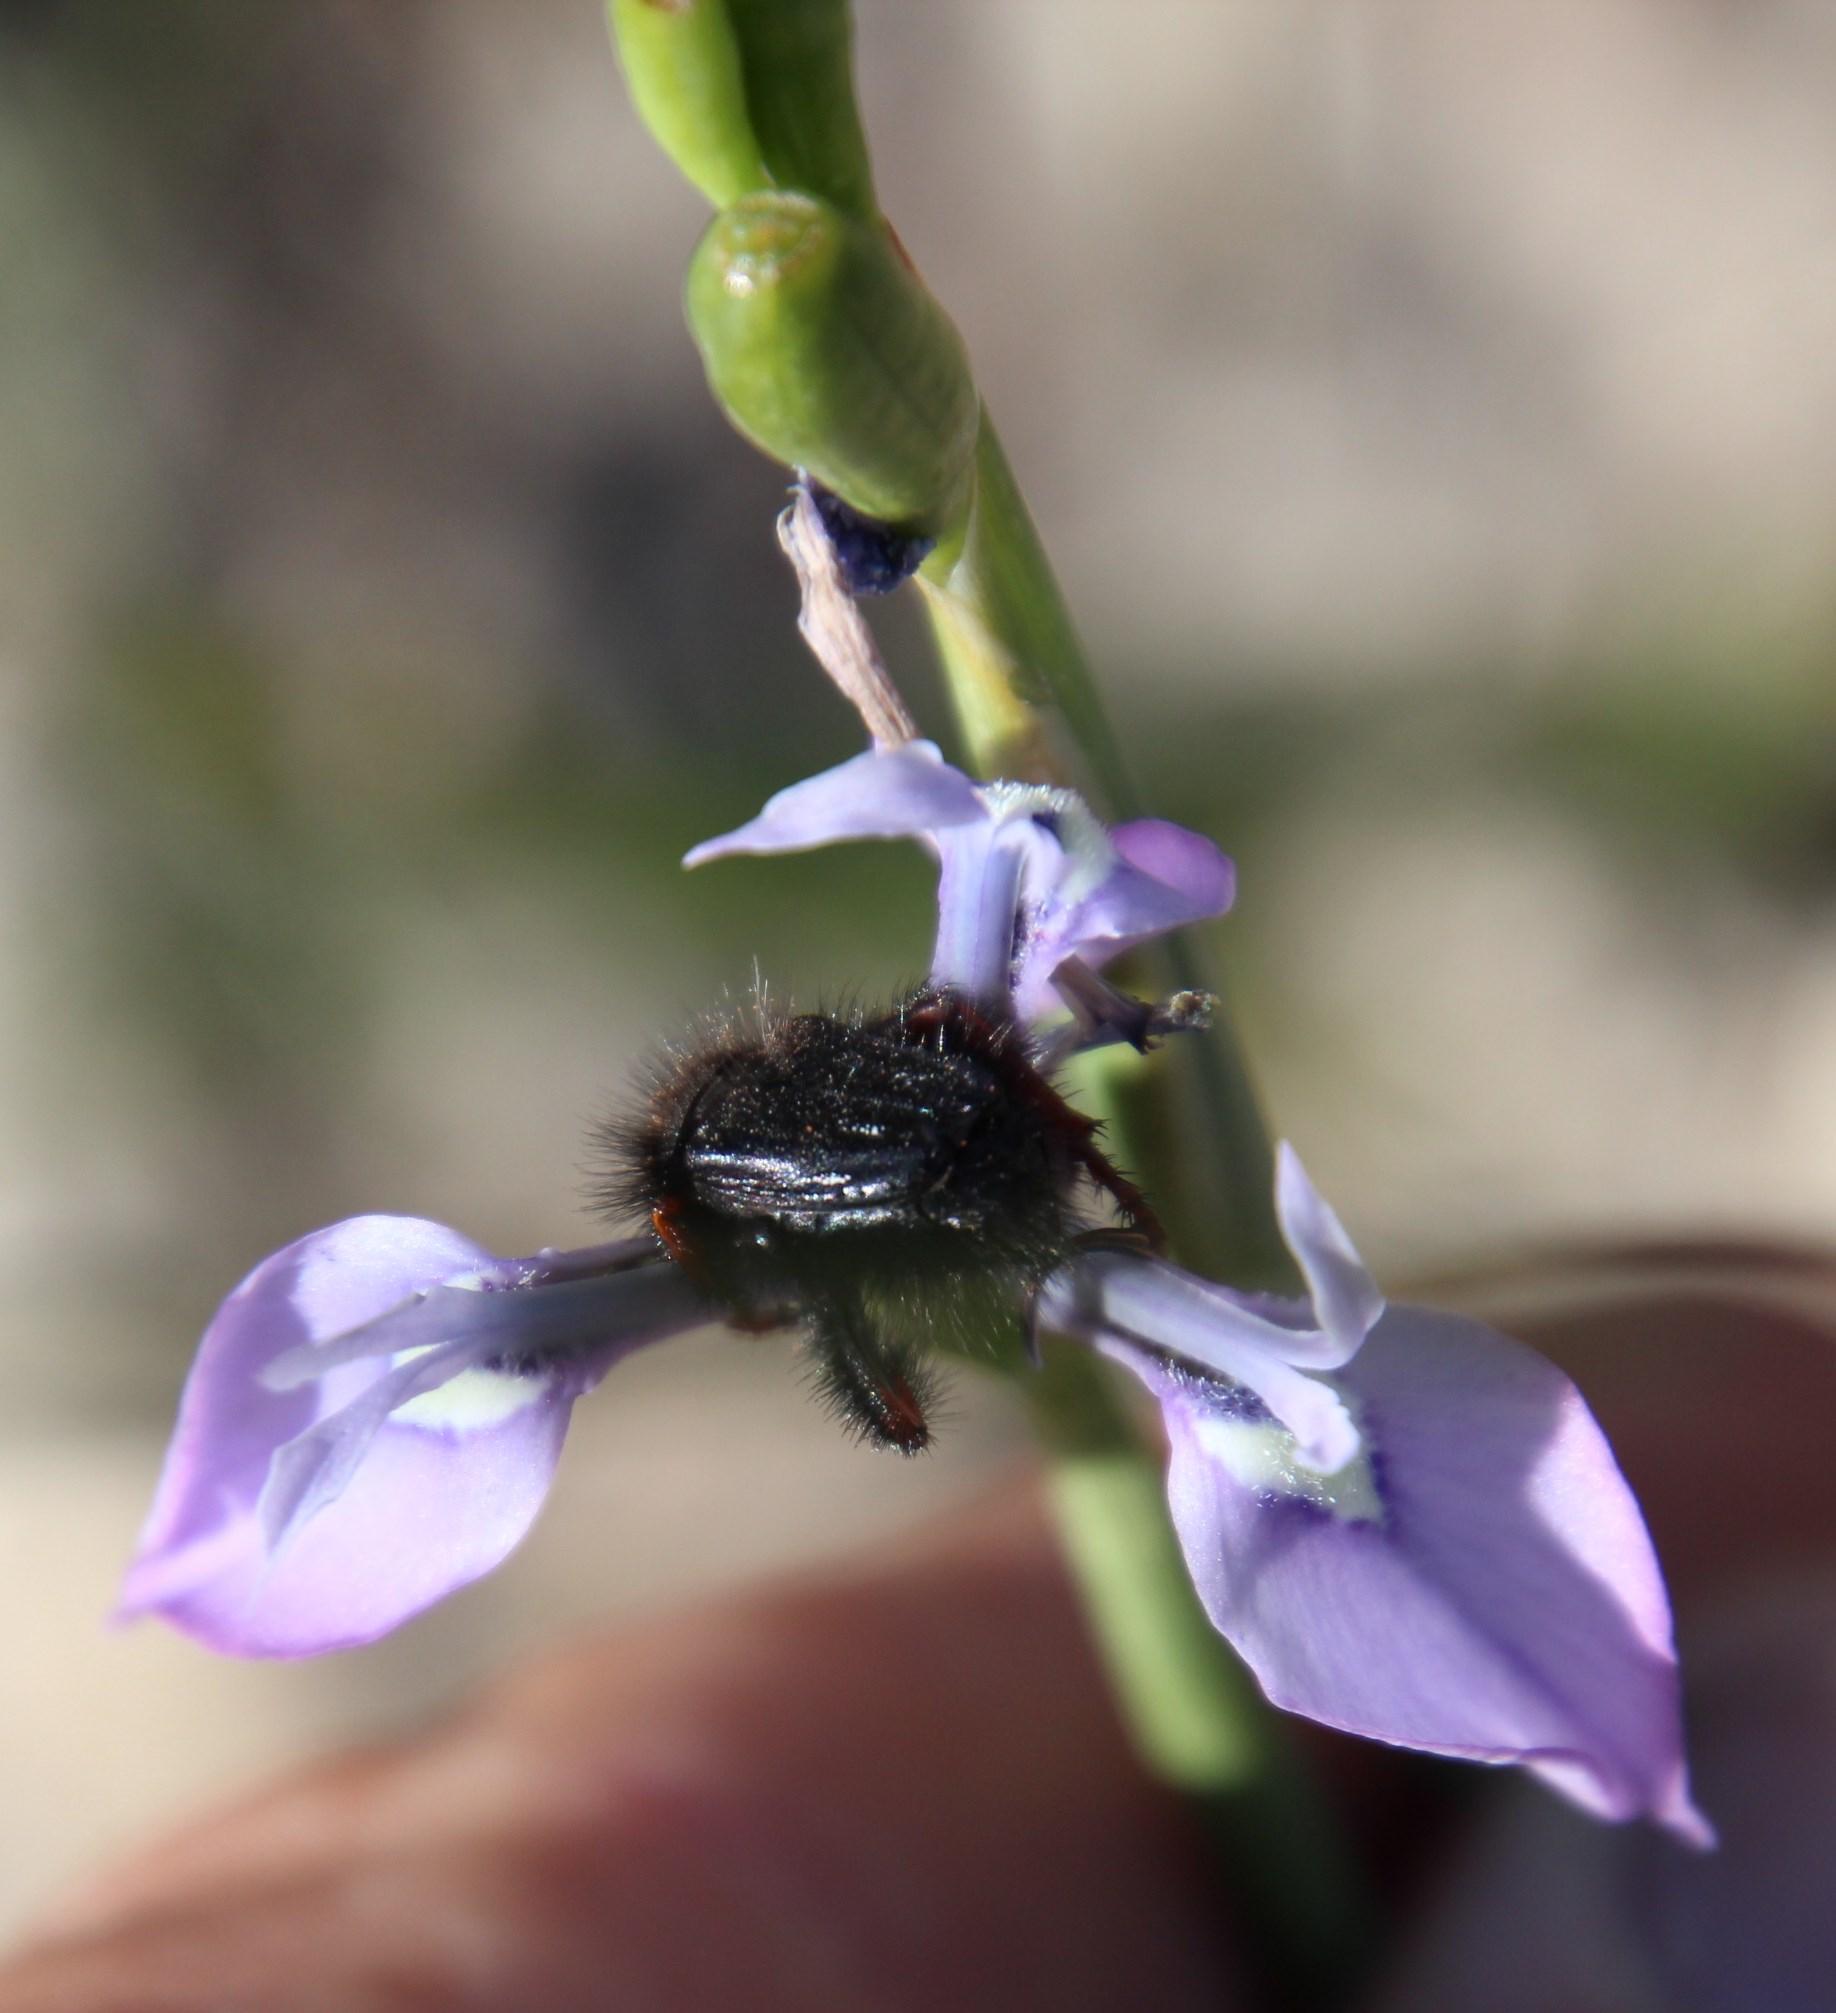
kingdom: Plantae
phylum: Tracheophyta
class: Liliopsida
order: Asparagales
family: Iridaceae
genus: Moraea
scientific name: Moraea tripetala
